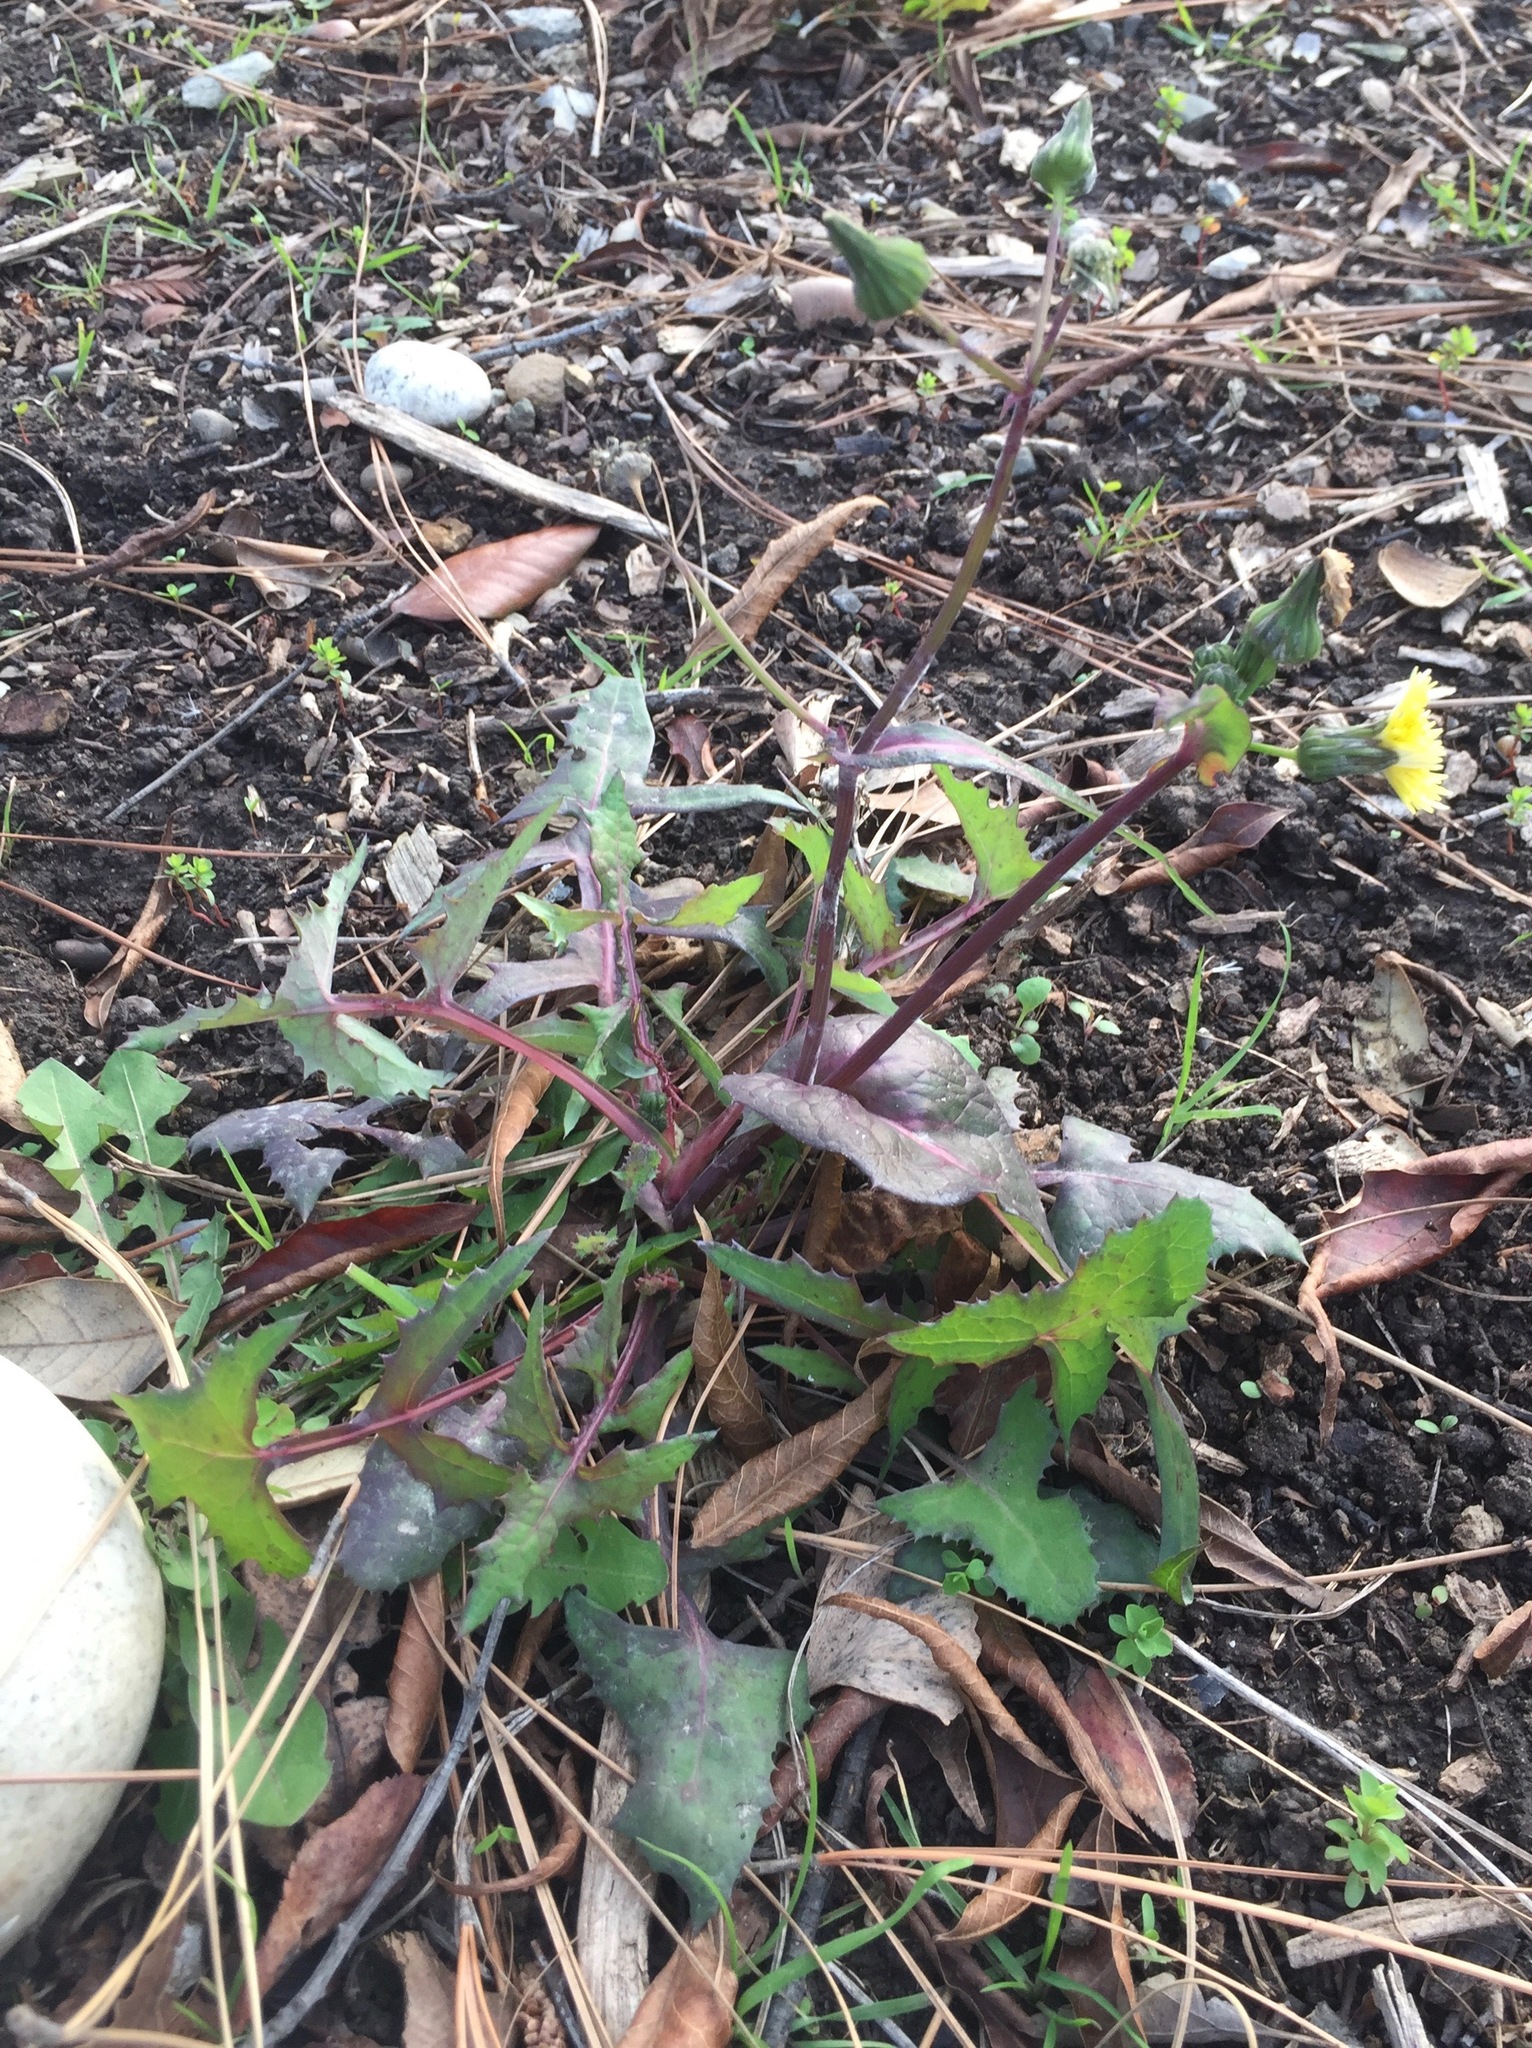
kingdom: Plantae
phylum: Tracheophyta
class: Magnoliopsida
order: Asterales
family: Asteraceae
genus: Sonchus
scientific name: Sonchus oleraceus
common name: Common sowthistle
